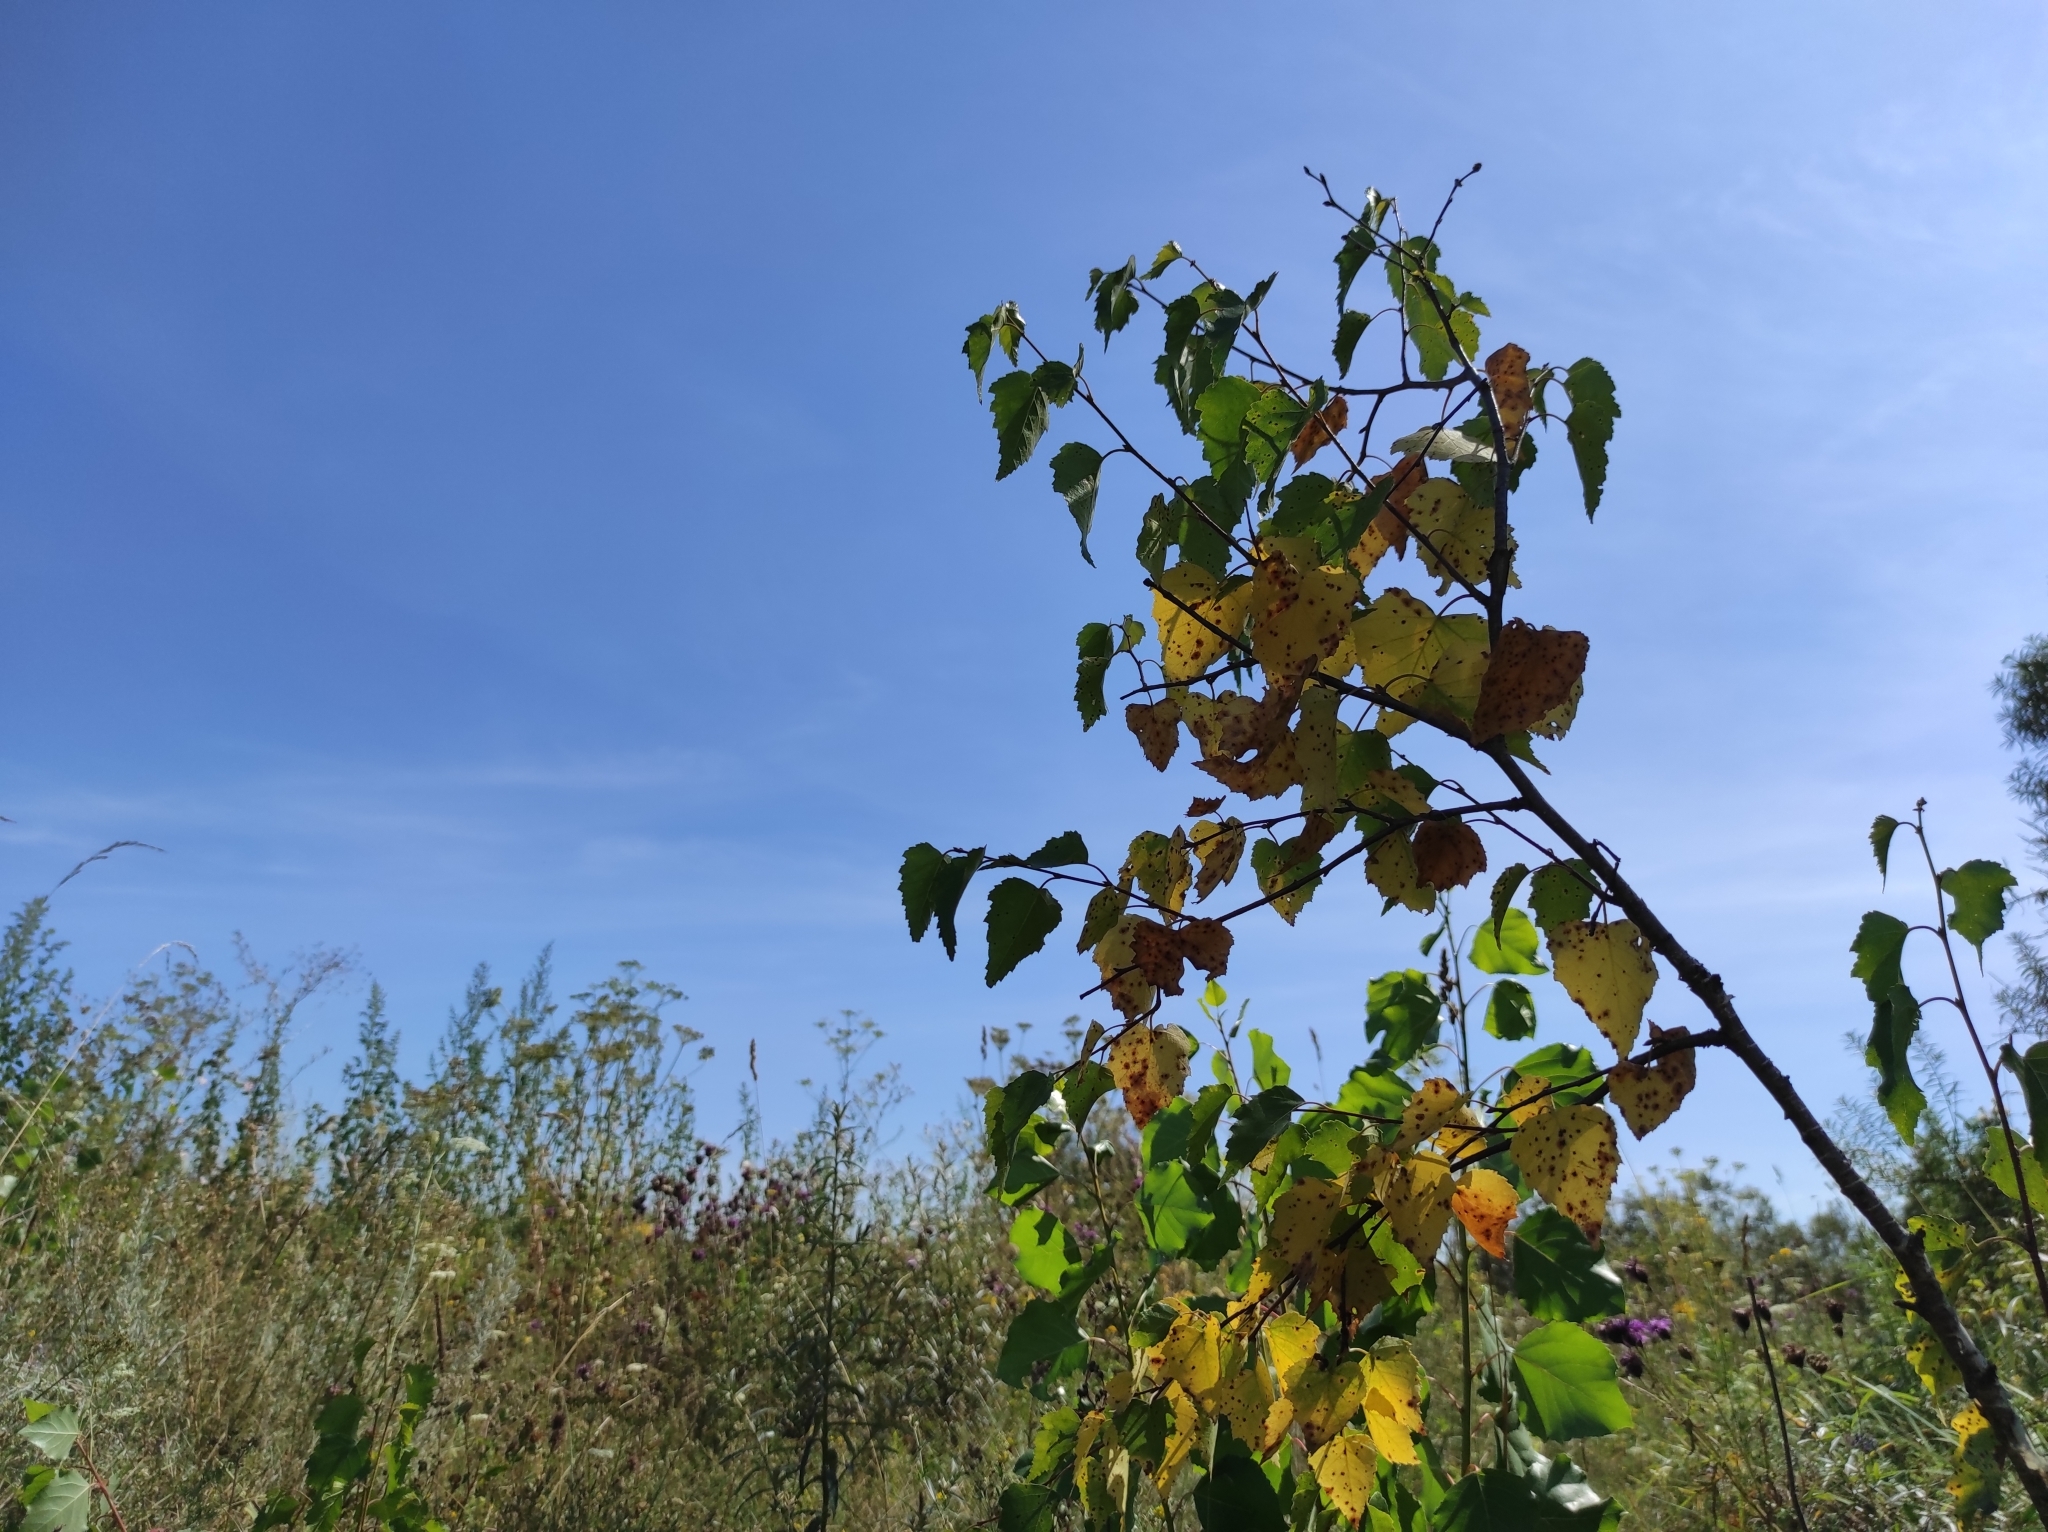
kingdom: Plantae
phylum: Tracheophyta
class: Magnoliopsida
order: Fagales
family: Betulaceae
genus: Betula
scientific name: Betula pendula
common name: Silver birch
